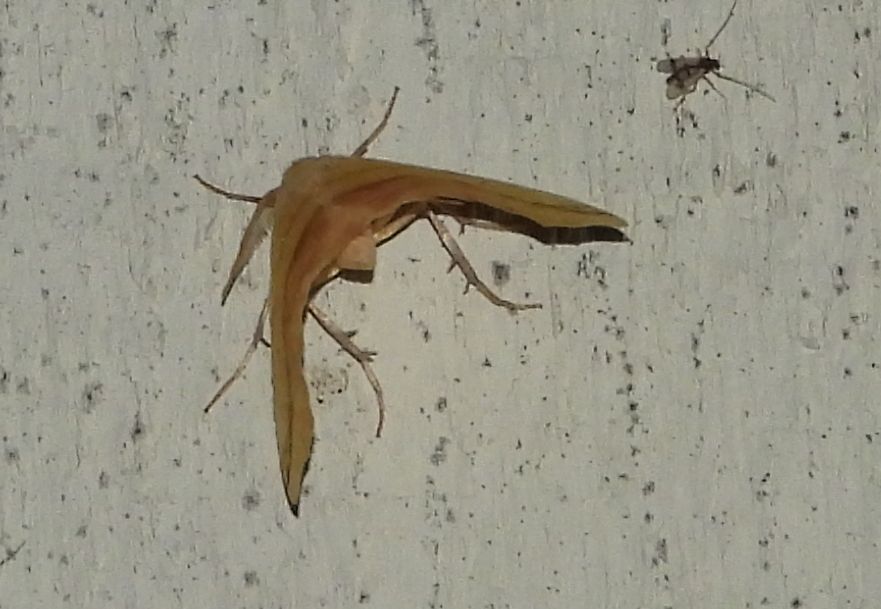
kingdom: Animalia
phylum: Arthropoda
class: Insecta
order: Lepidoptera
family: Geometridae
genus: Sicya
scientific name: Sicya macularia
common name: Sharp-lined yellow
